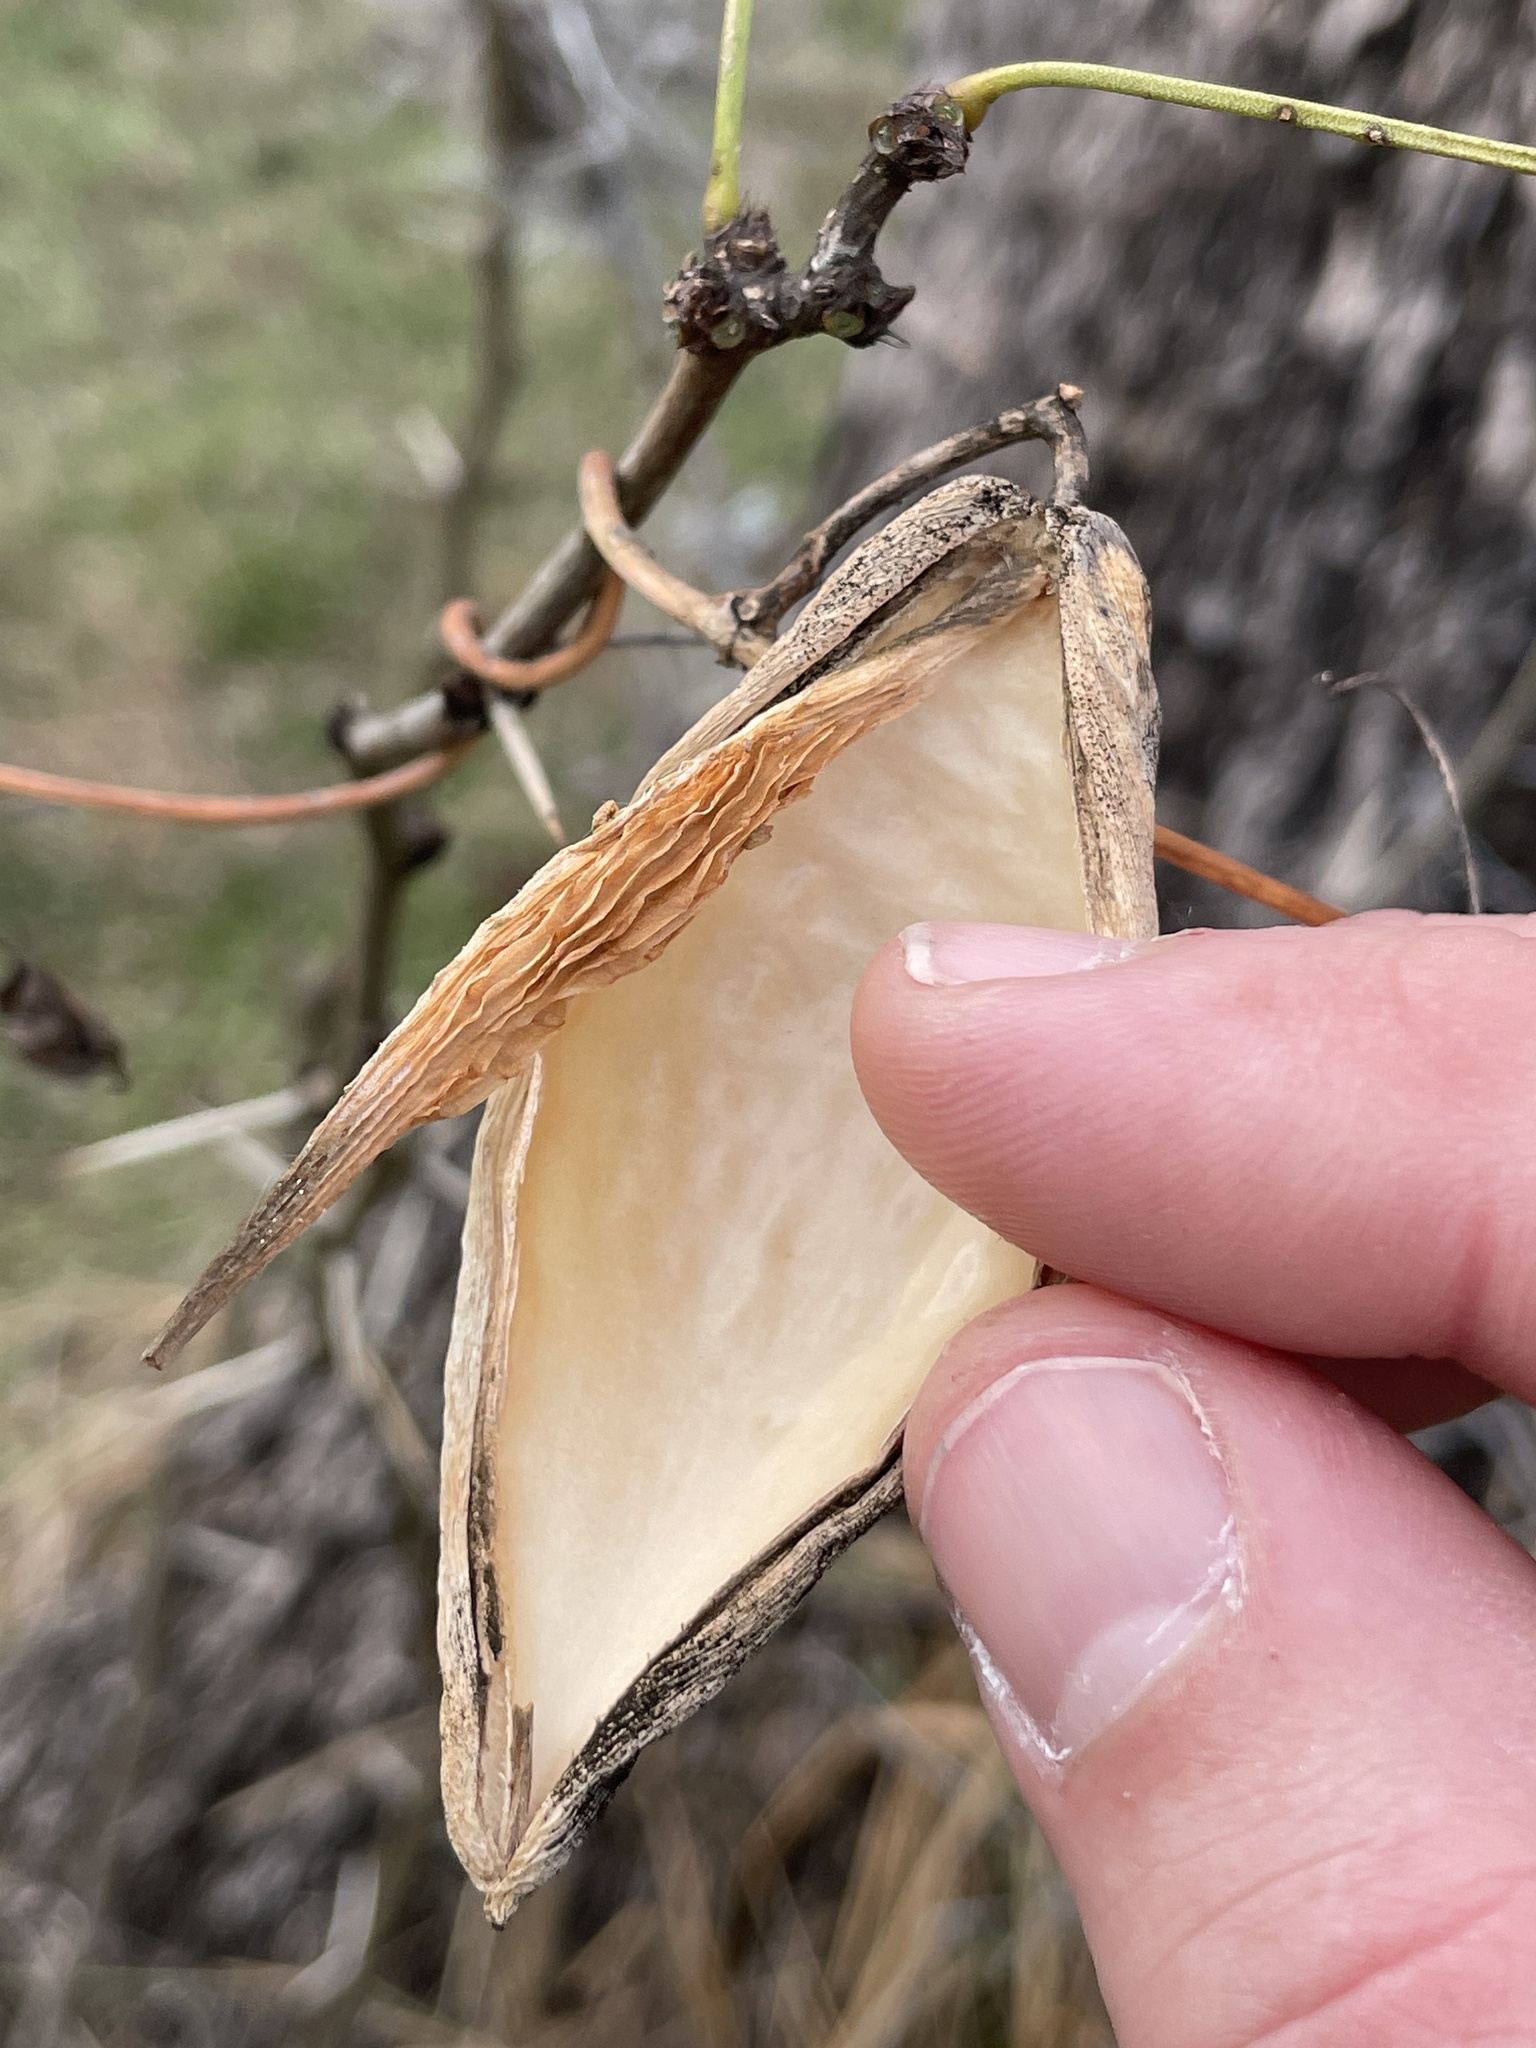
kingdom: Plantae
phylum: Tracheophyta
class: Magnoliopsida
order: Gentianales
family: Apocynaceae
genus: Cynanchum
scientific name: Cynanchum racemosum
